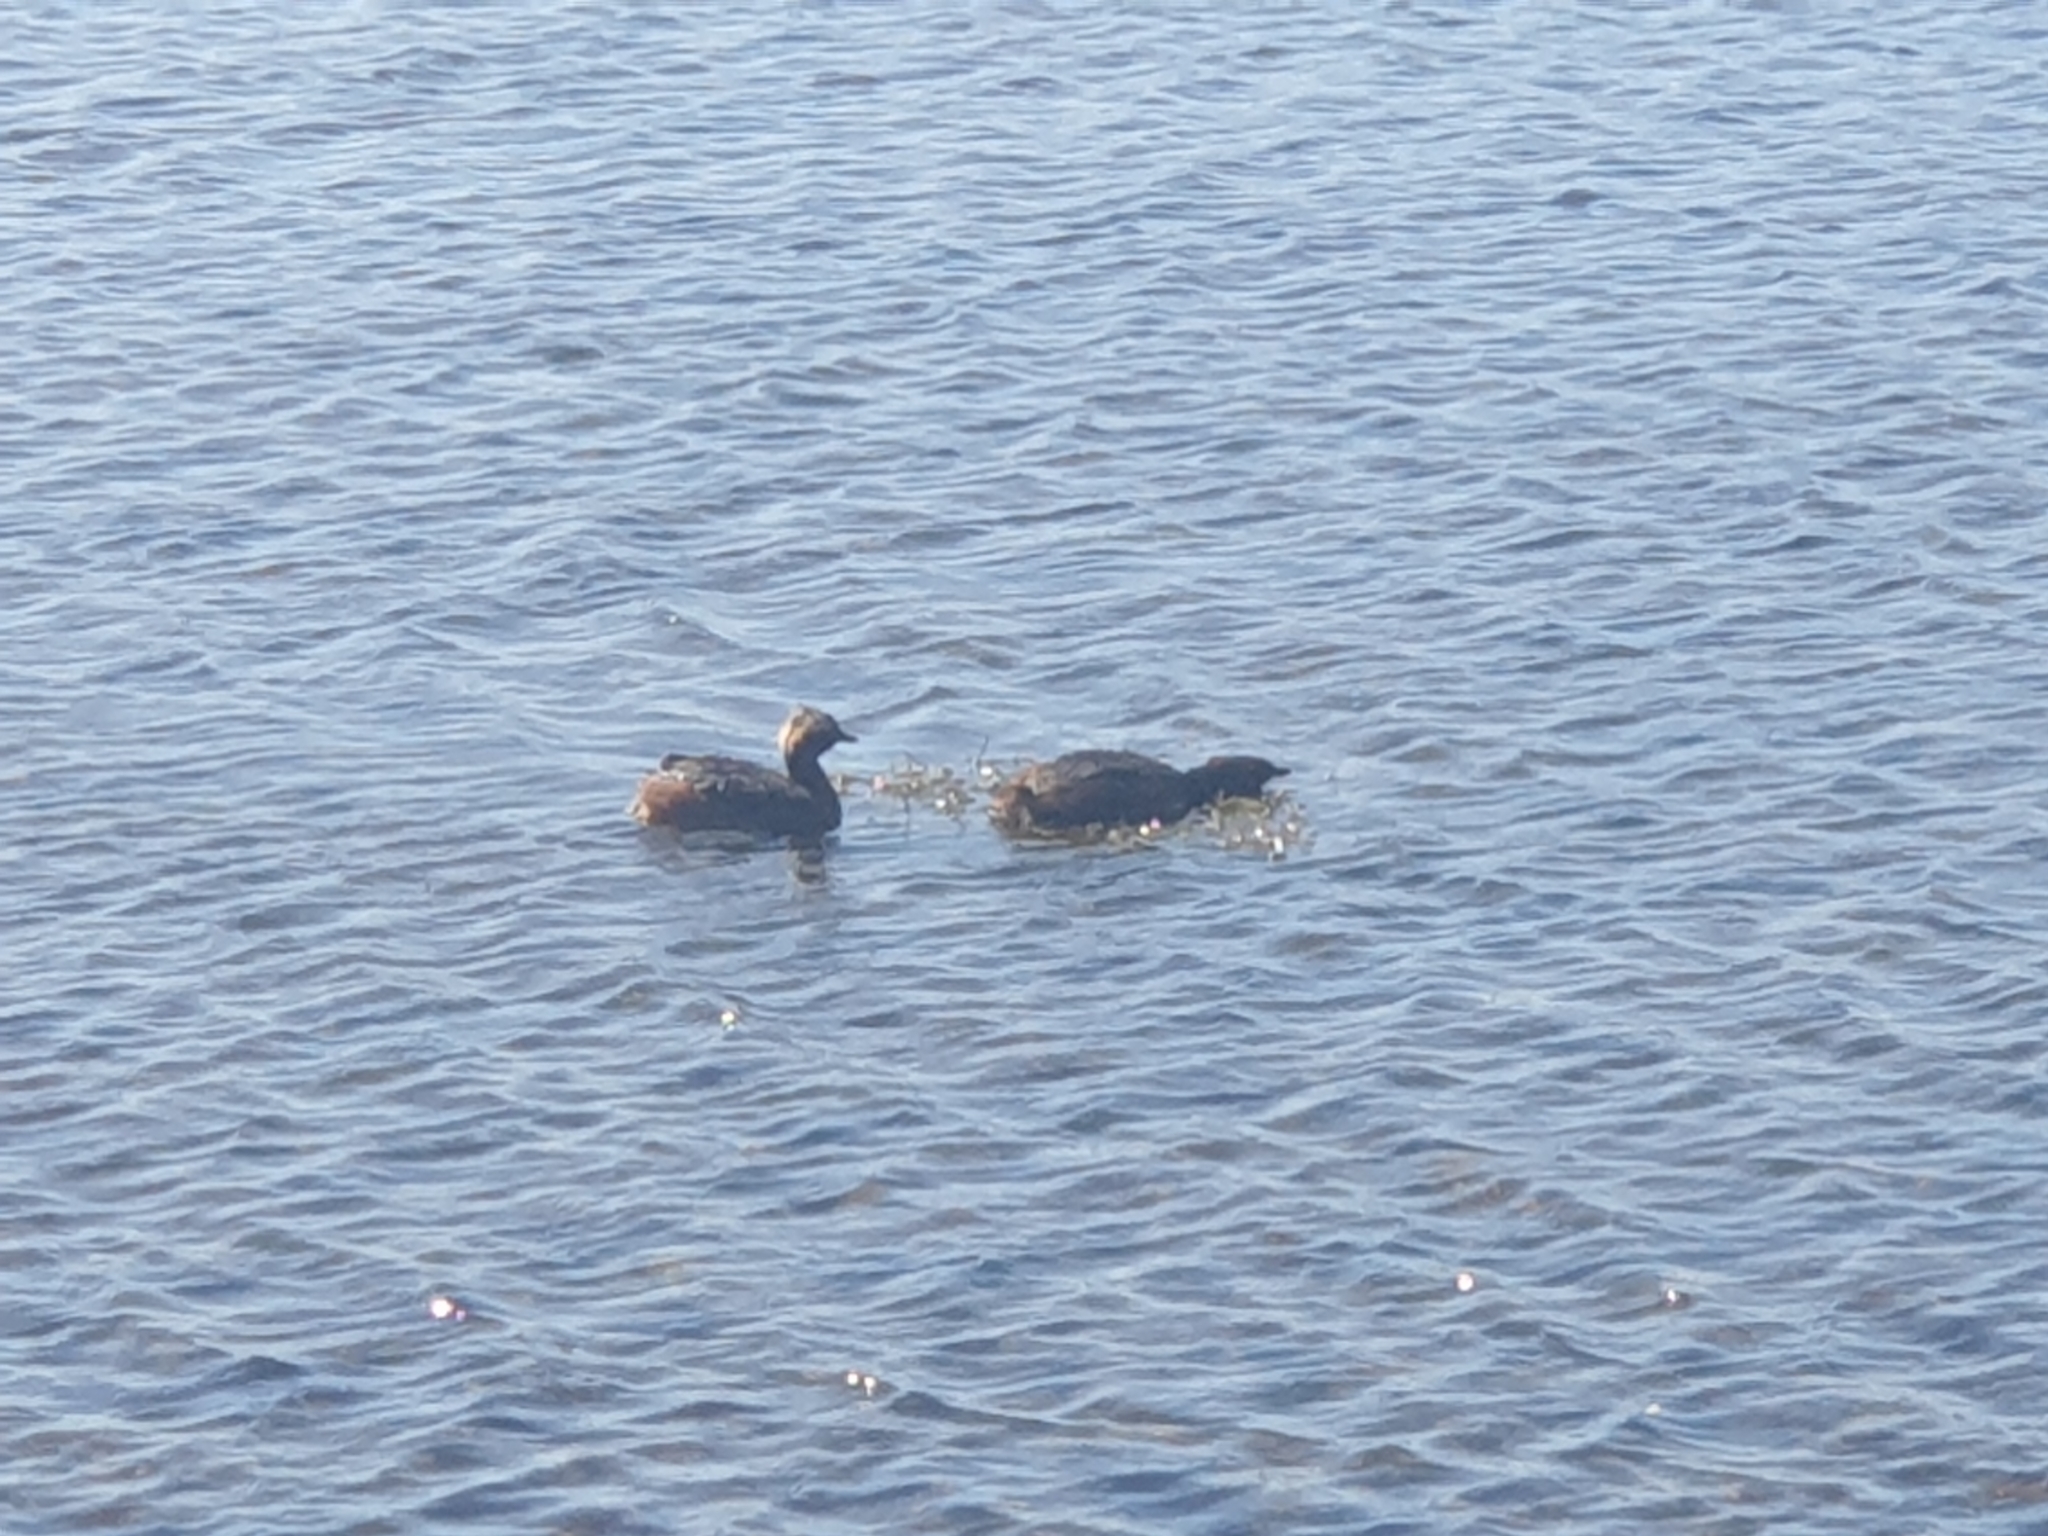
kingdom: Animalia
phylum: Chordata
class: Aves
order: Podicipediformes
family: Podicipedidae
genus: Podiceps
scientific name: Podiceps auritus
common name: Horned grebe
